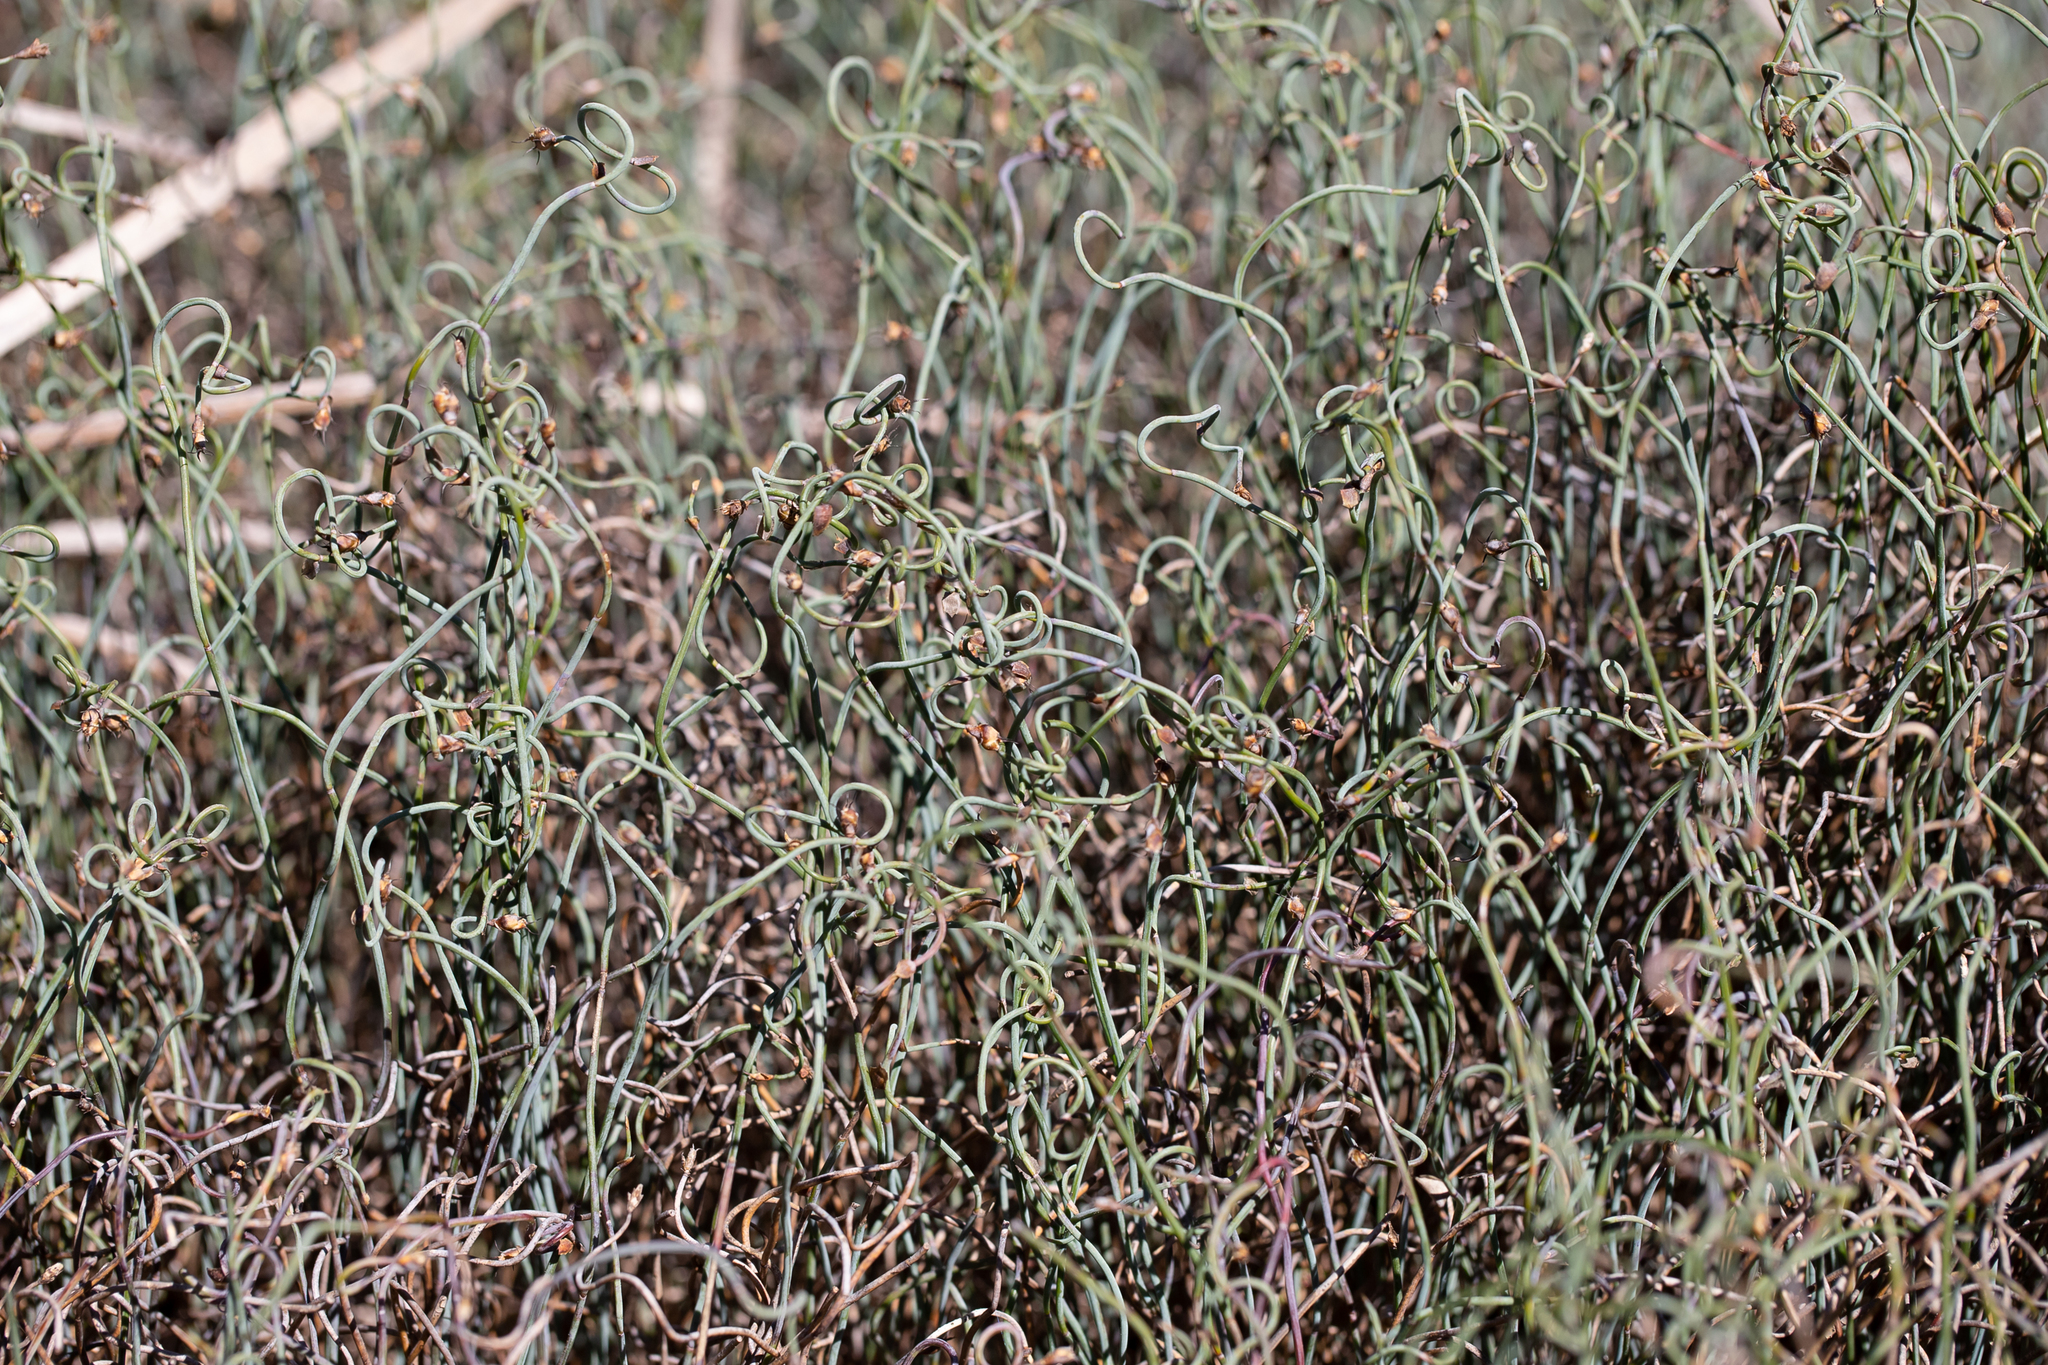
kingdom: Plantae
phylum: Tracheophyta
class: Liliopsida
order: Poales
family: Restionaceae
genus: Lepidobolus
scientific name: Lepidobolus drapetocoleus
